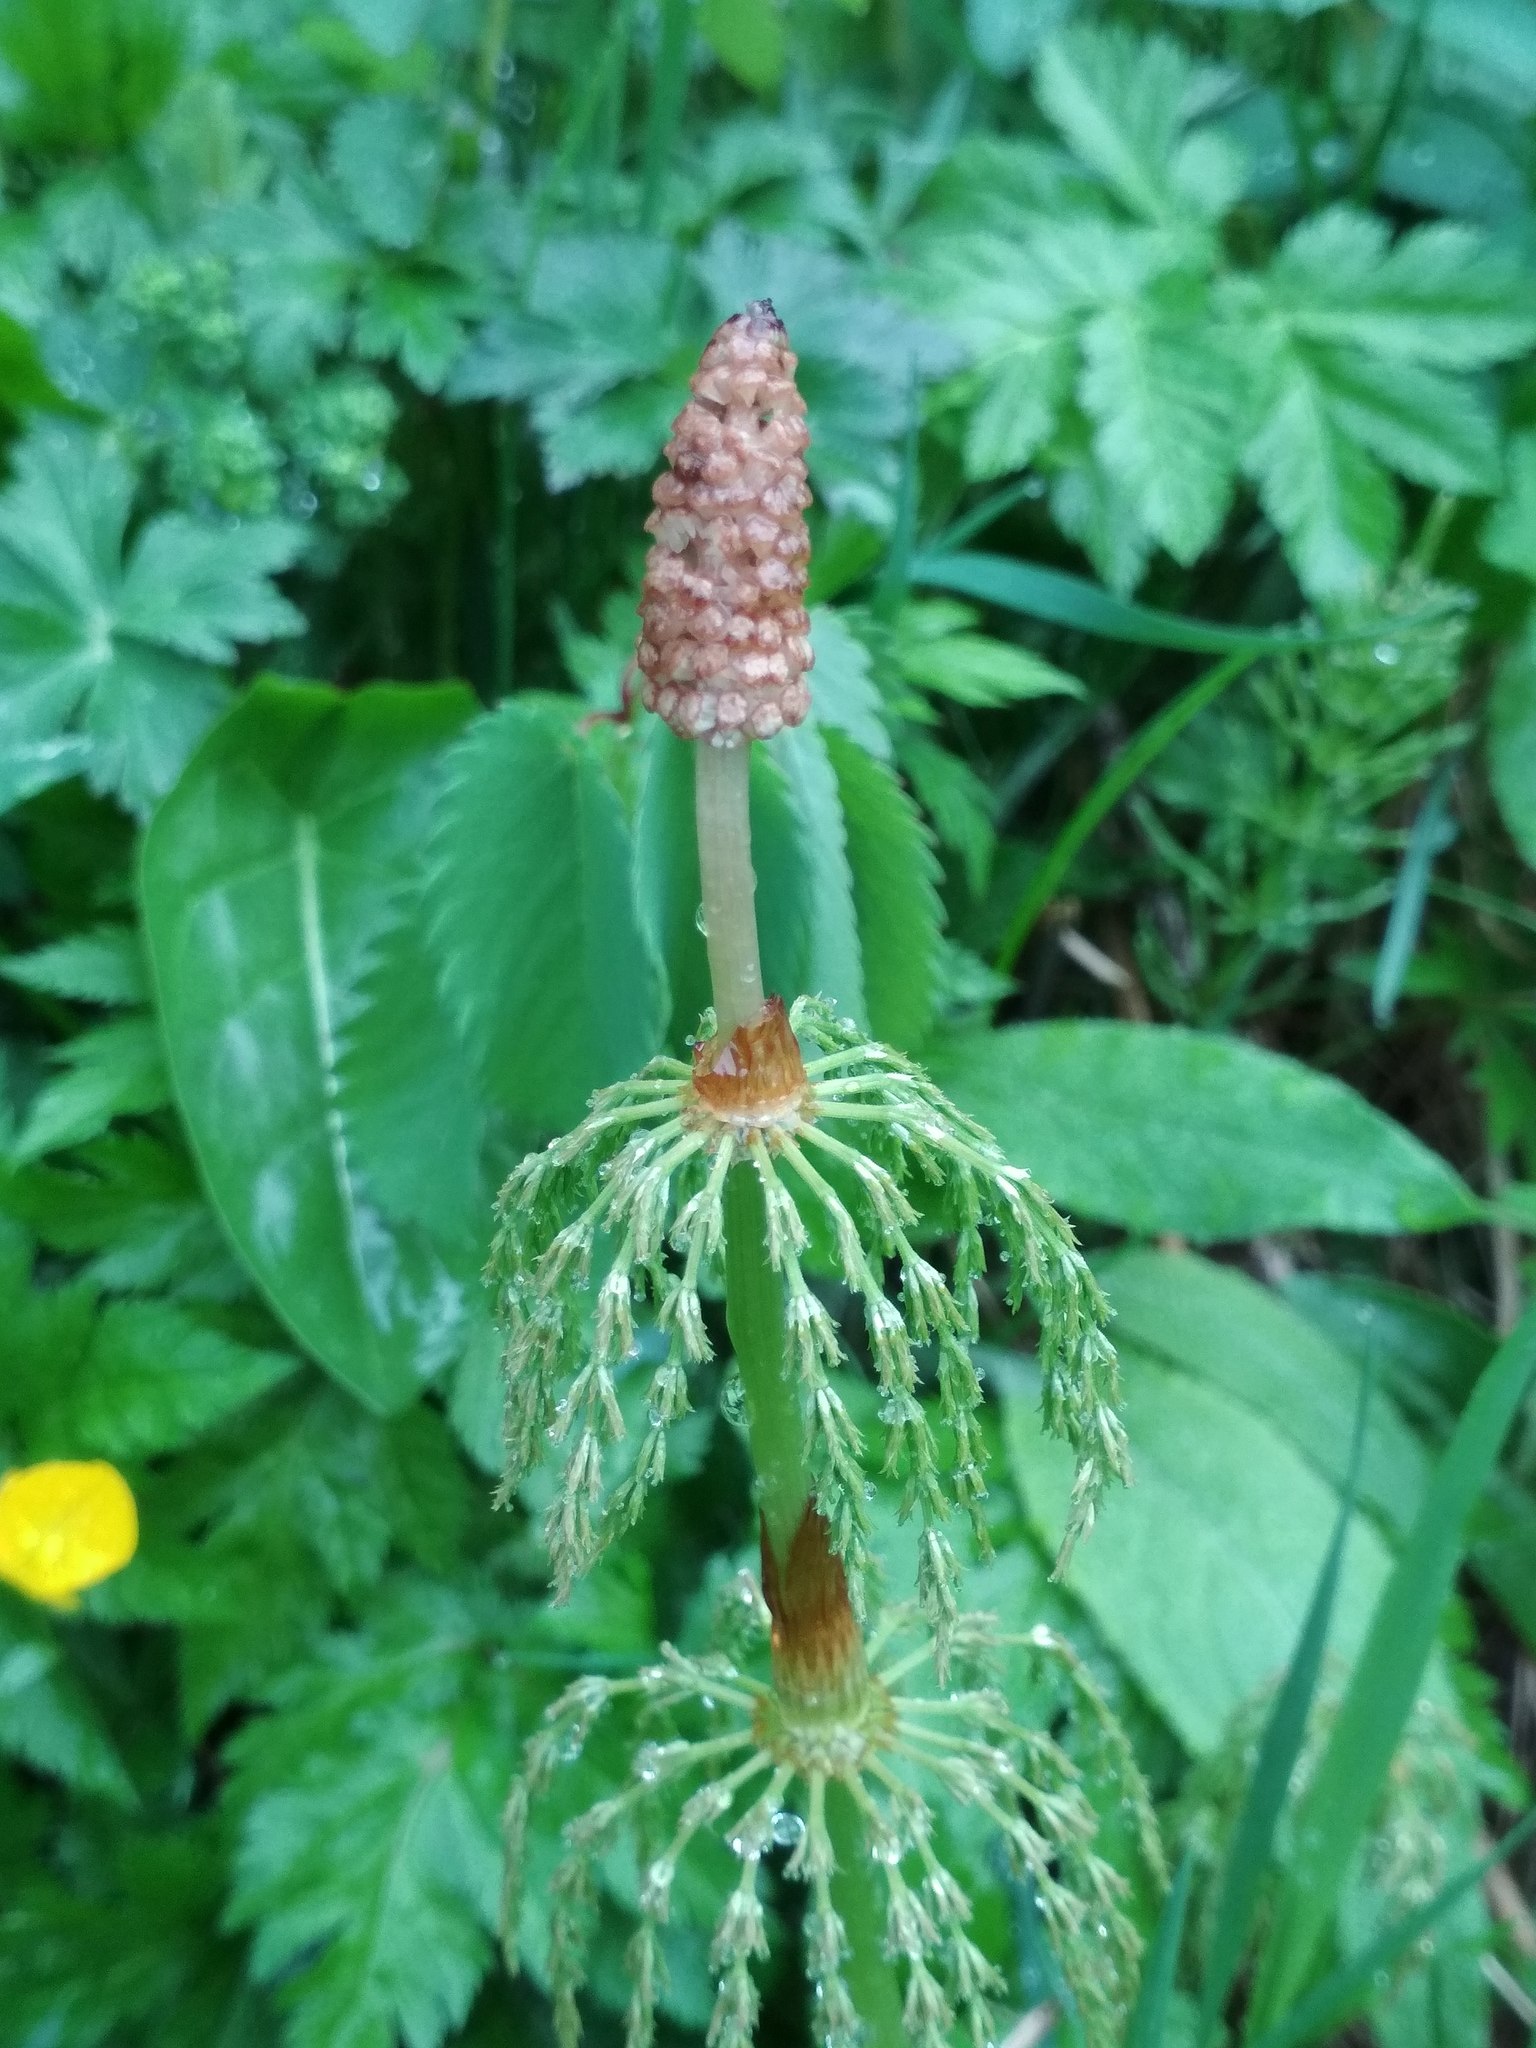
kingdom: Plantae
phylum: Tracheophyta
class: Polypodiopsida
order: Equisetales
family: Equisetaceae
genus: Equisetum
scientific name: Equisetum sylvaticum
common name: Wood horsetail
